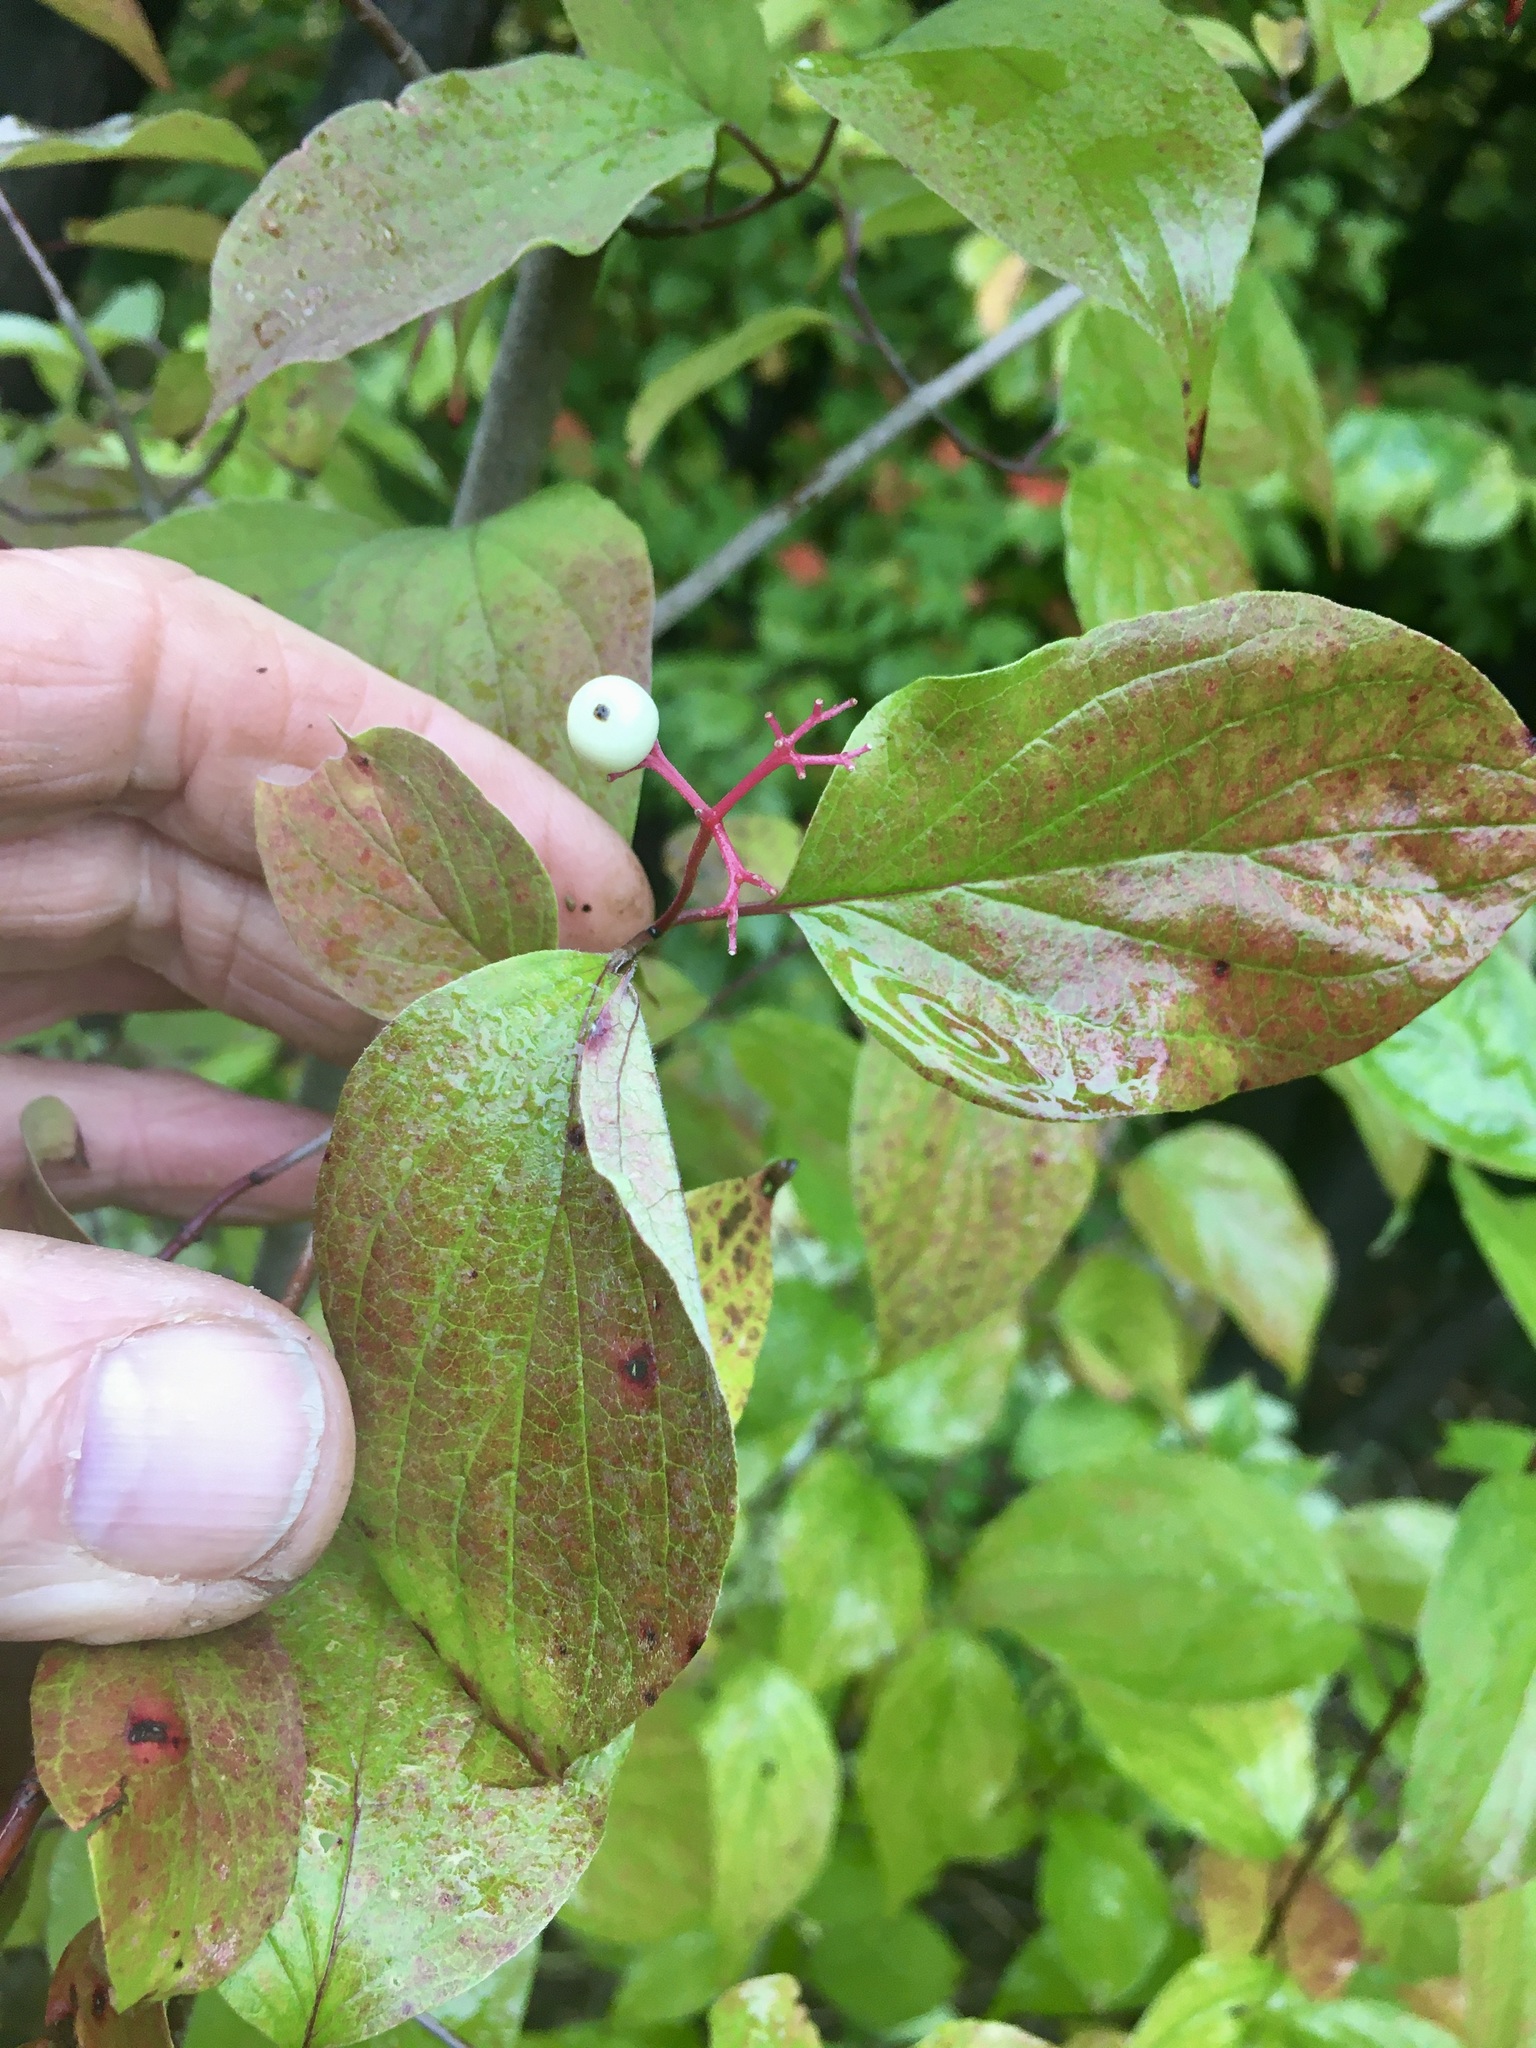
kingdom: Plantae
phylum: Tracheophyta
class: Magnoliopsida
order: Cornales
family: Cornaceae
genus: Cornus
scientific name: Cornus racemosa
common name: Panicled dogwood
